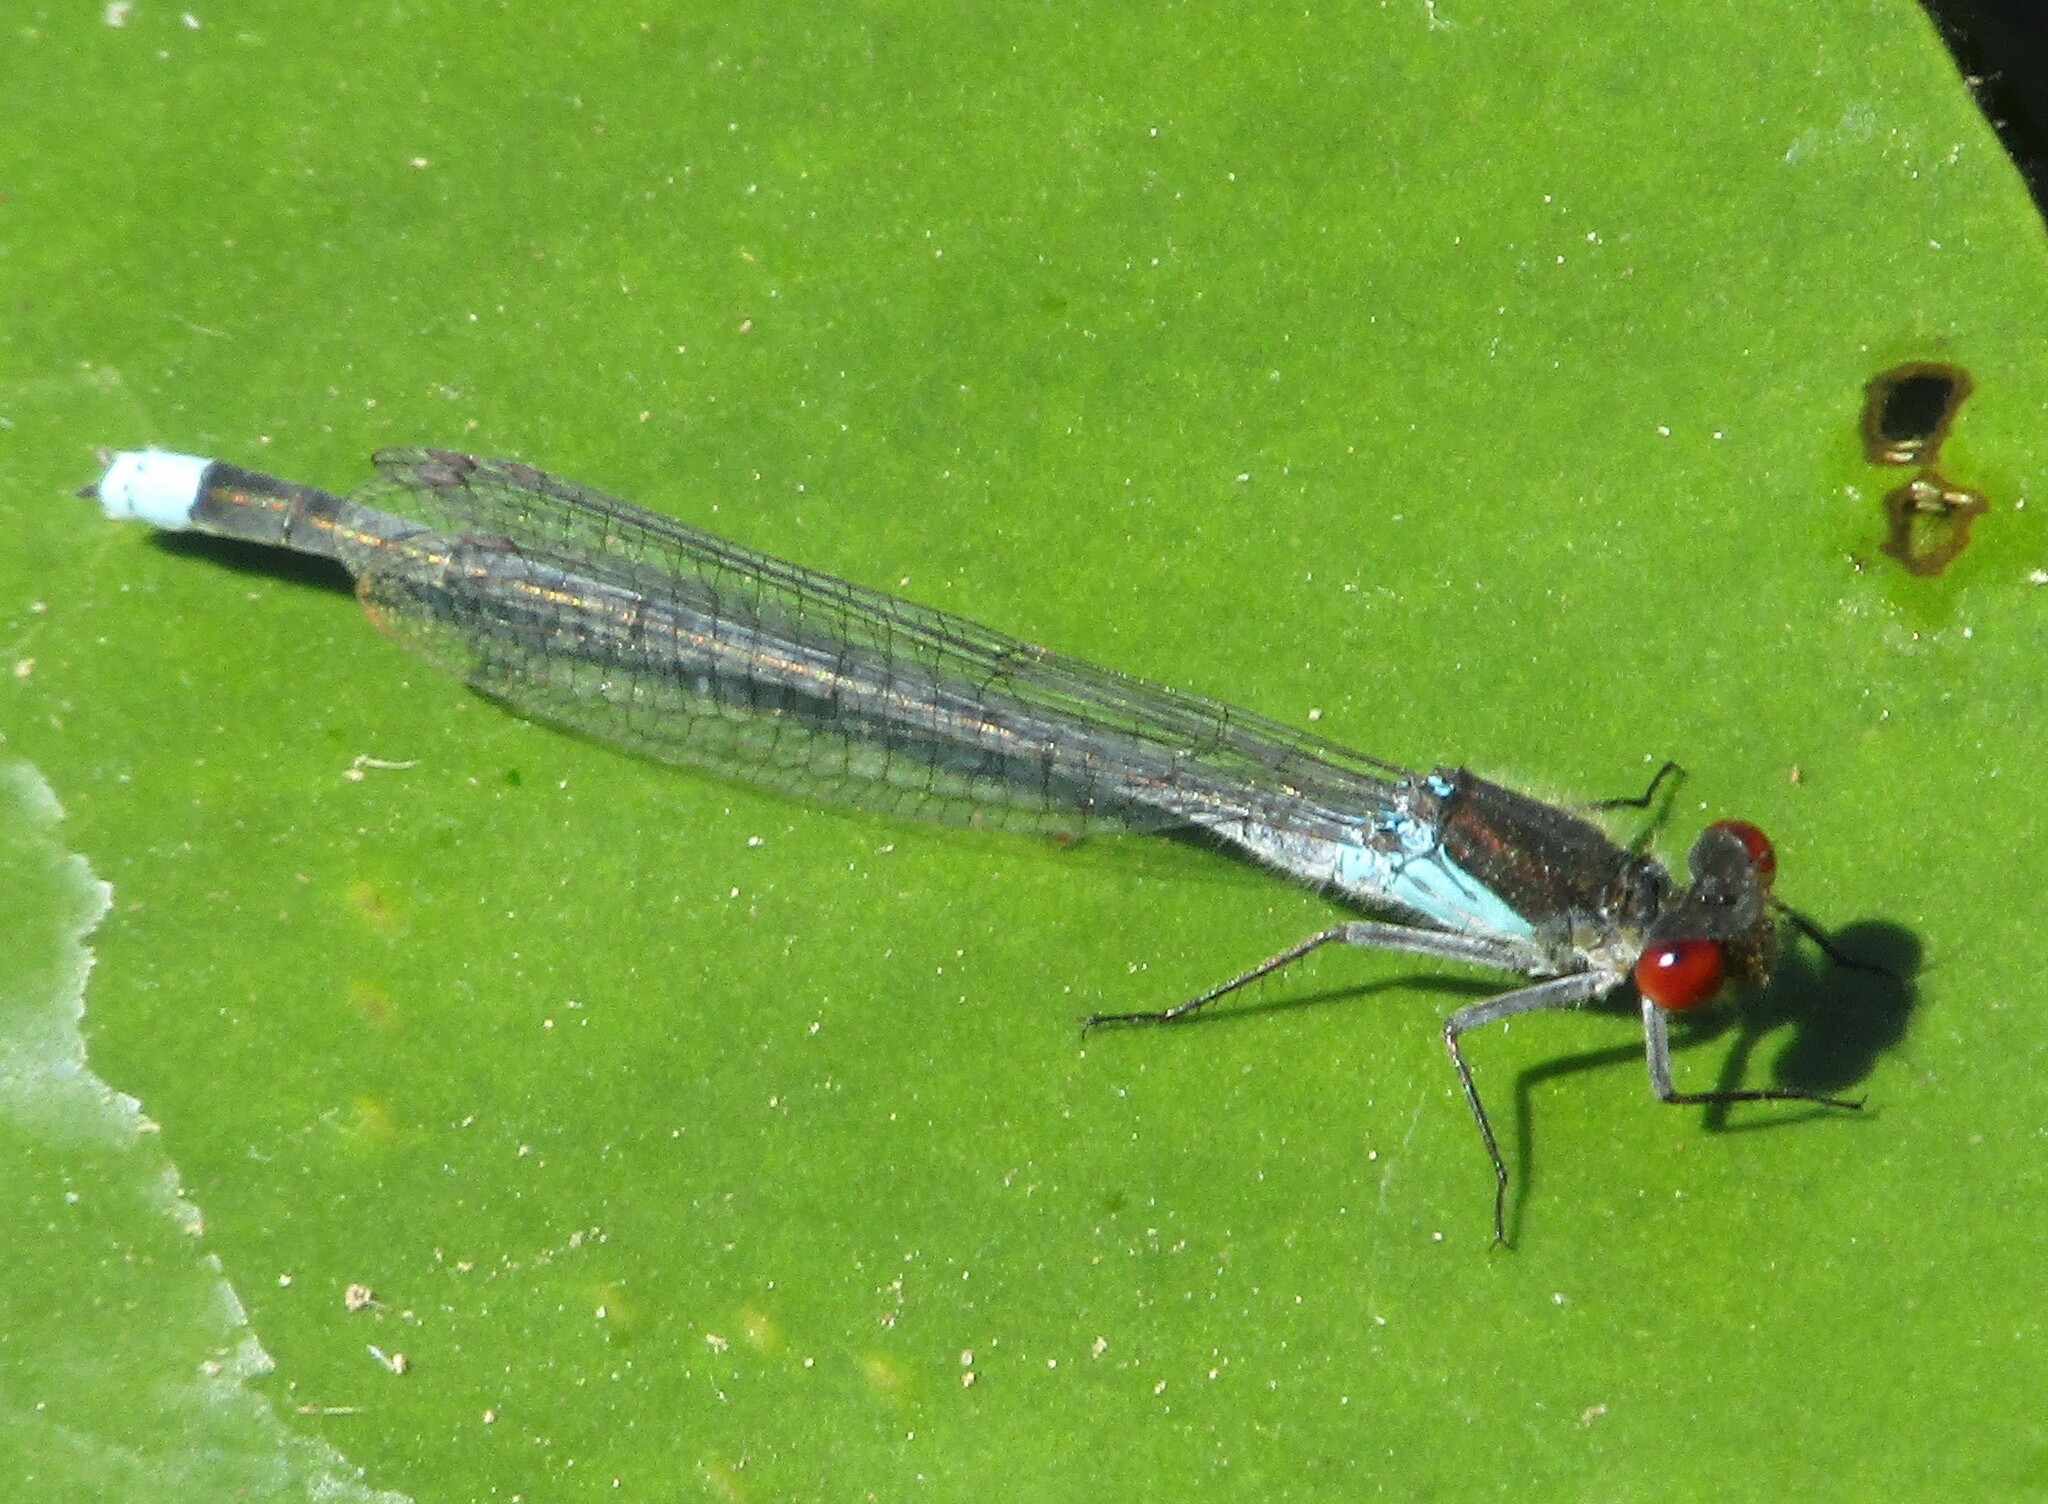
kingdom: Animalia
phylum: Arthropoda
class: Insecta
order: Odonata
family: Coenagrionidae
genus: Erythromma
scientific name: Erythromma najas
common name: Red-eyed damselfly
